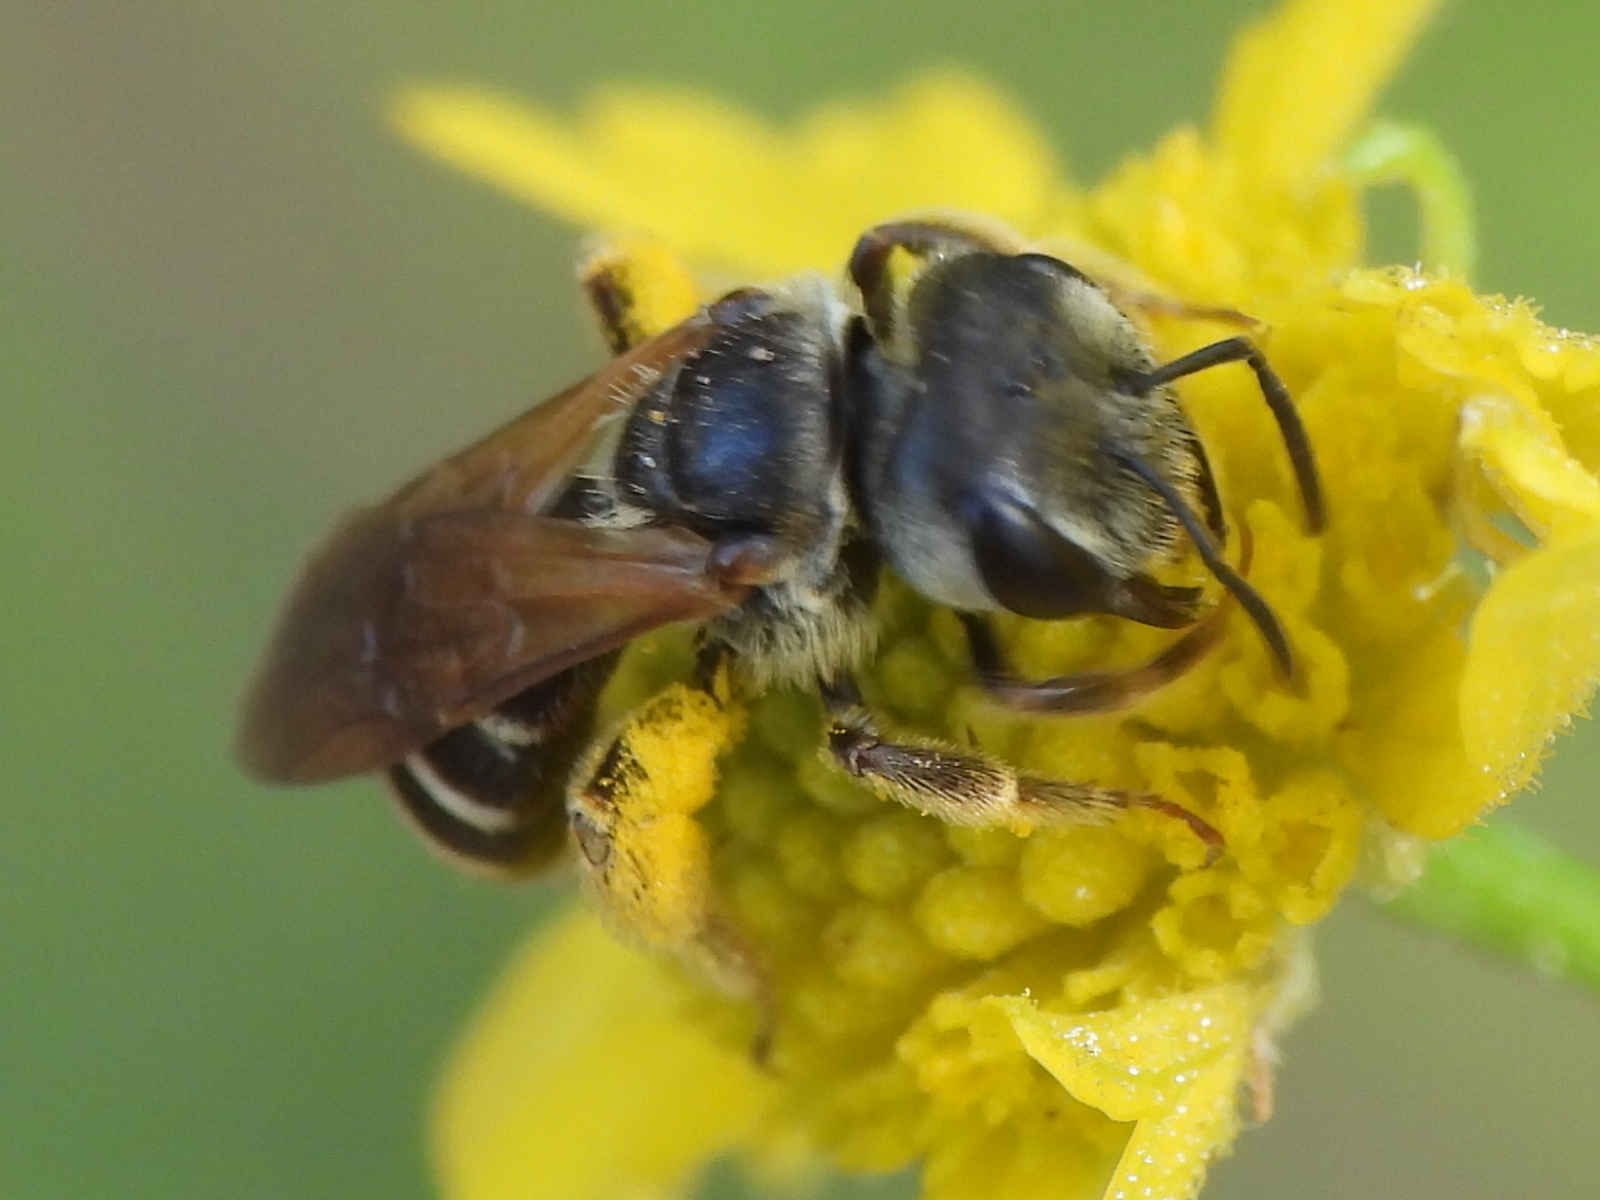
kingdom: Animalia
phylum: Arthropoda
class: Insecta
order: Hymenoptera
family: Halictidae
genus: Halictus
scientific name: Halictus ligatus
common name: Ligated furrow bee
